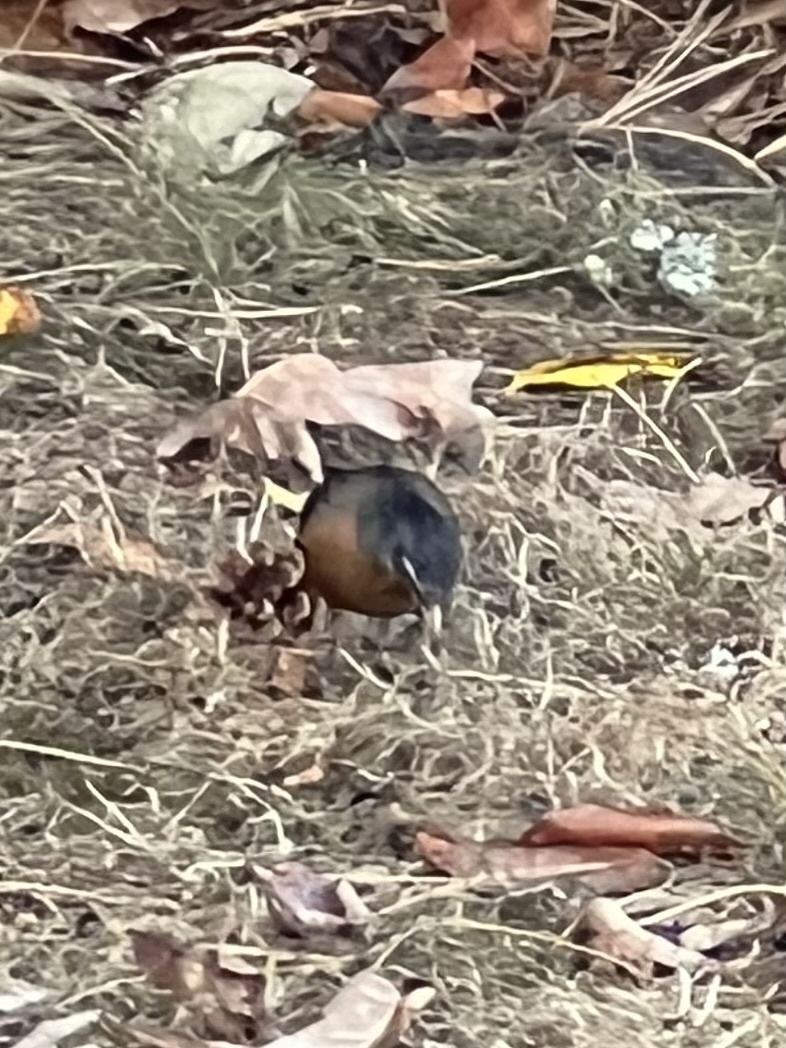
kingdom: Animalia
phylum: Chordata
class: Aves
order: Passeriformes
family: Turdidae
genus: Turdus
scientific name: Turdus migratorius
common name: American robin
